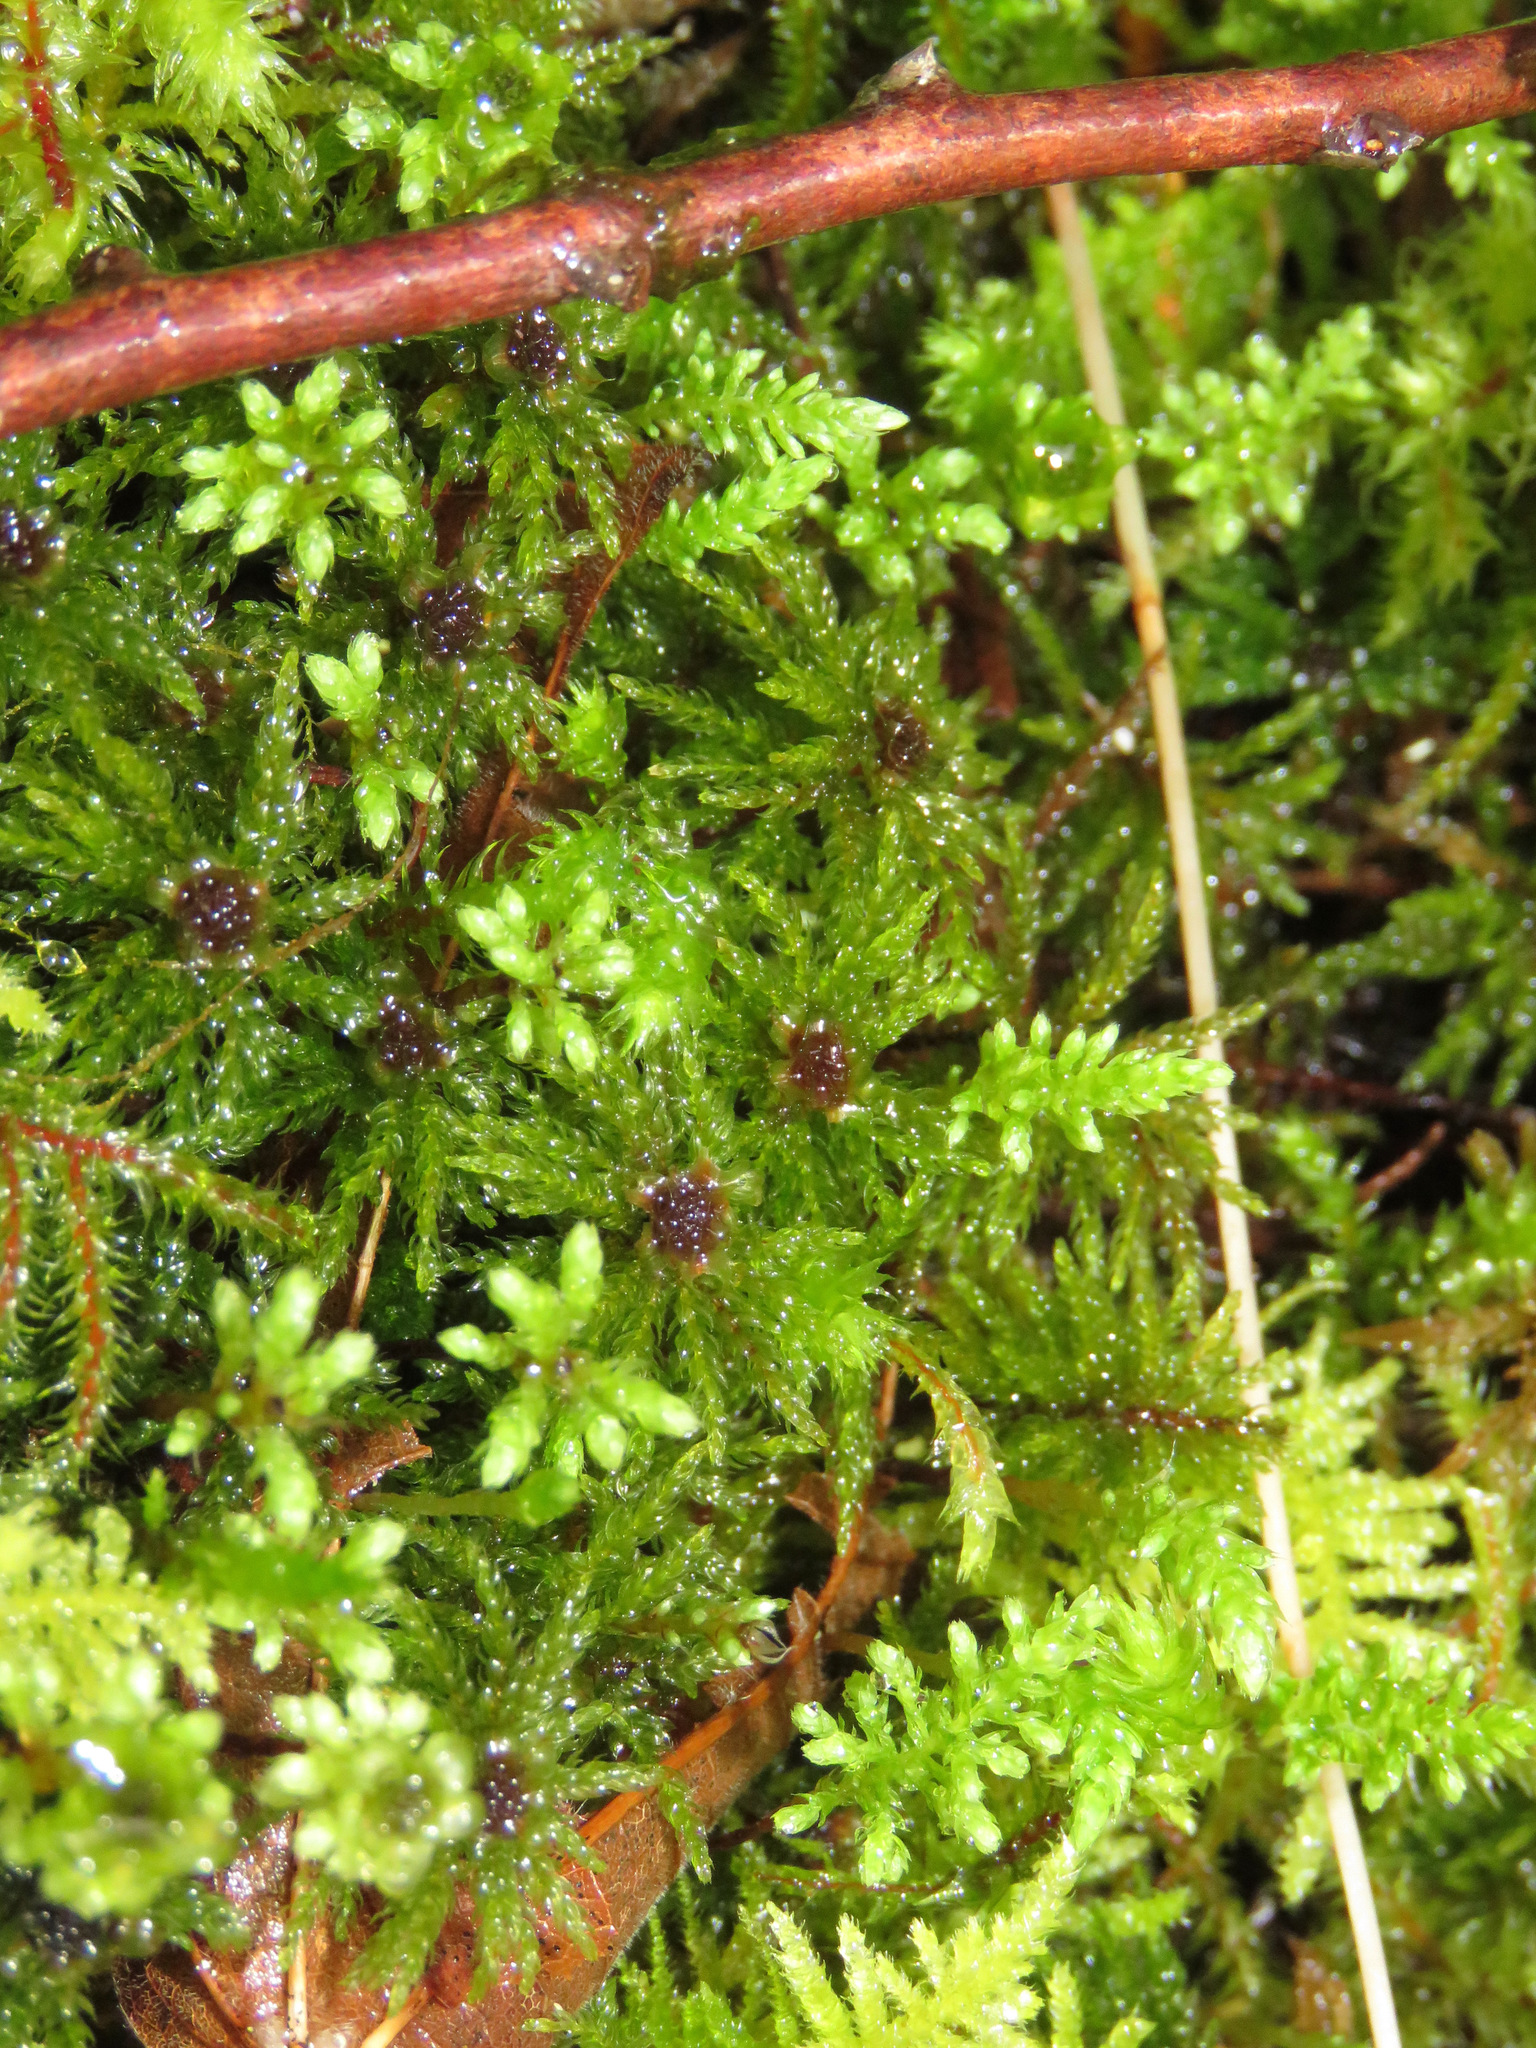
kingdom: Plantae
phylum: Bryophyta
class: Bryopsida
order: Bryales
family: Mniaceae
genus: Leucolepis
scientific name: Leucolepis acanthoneura
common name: Leucolepis umbrella moss
